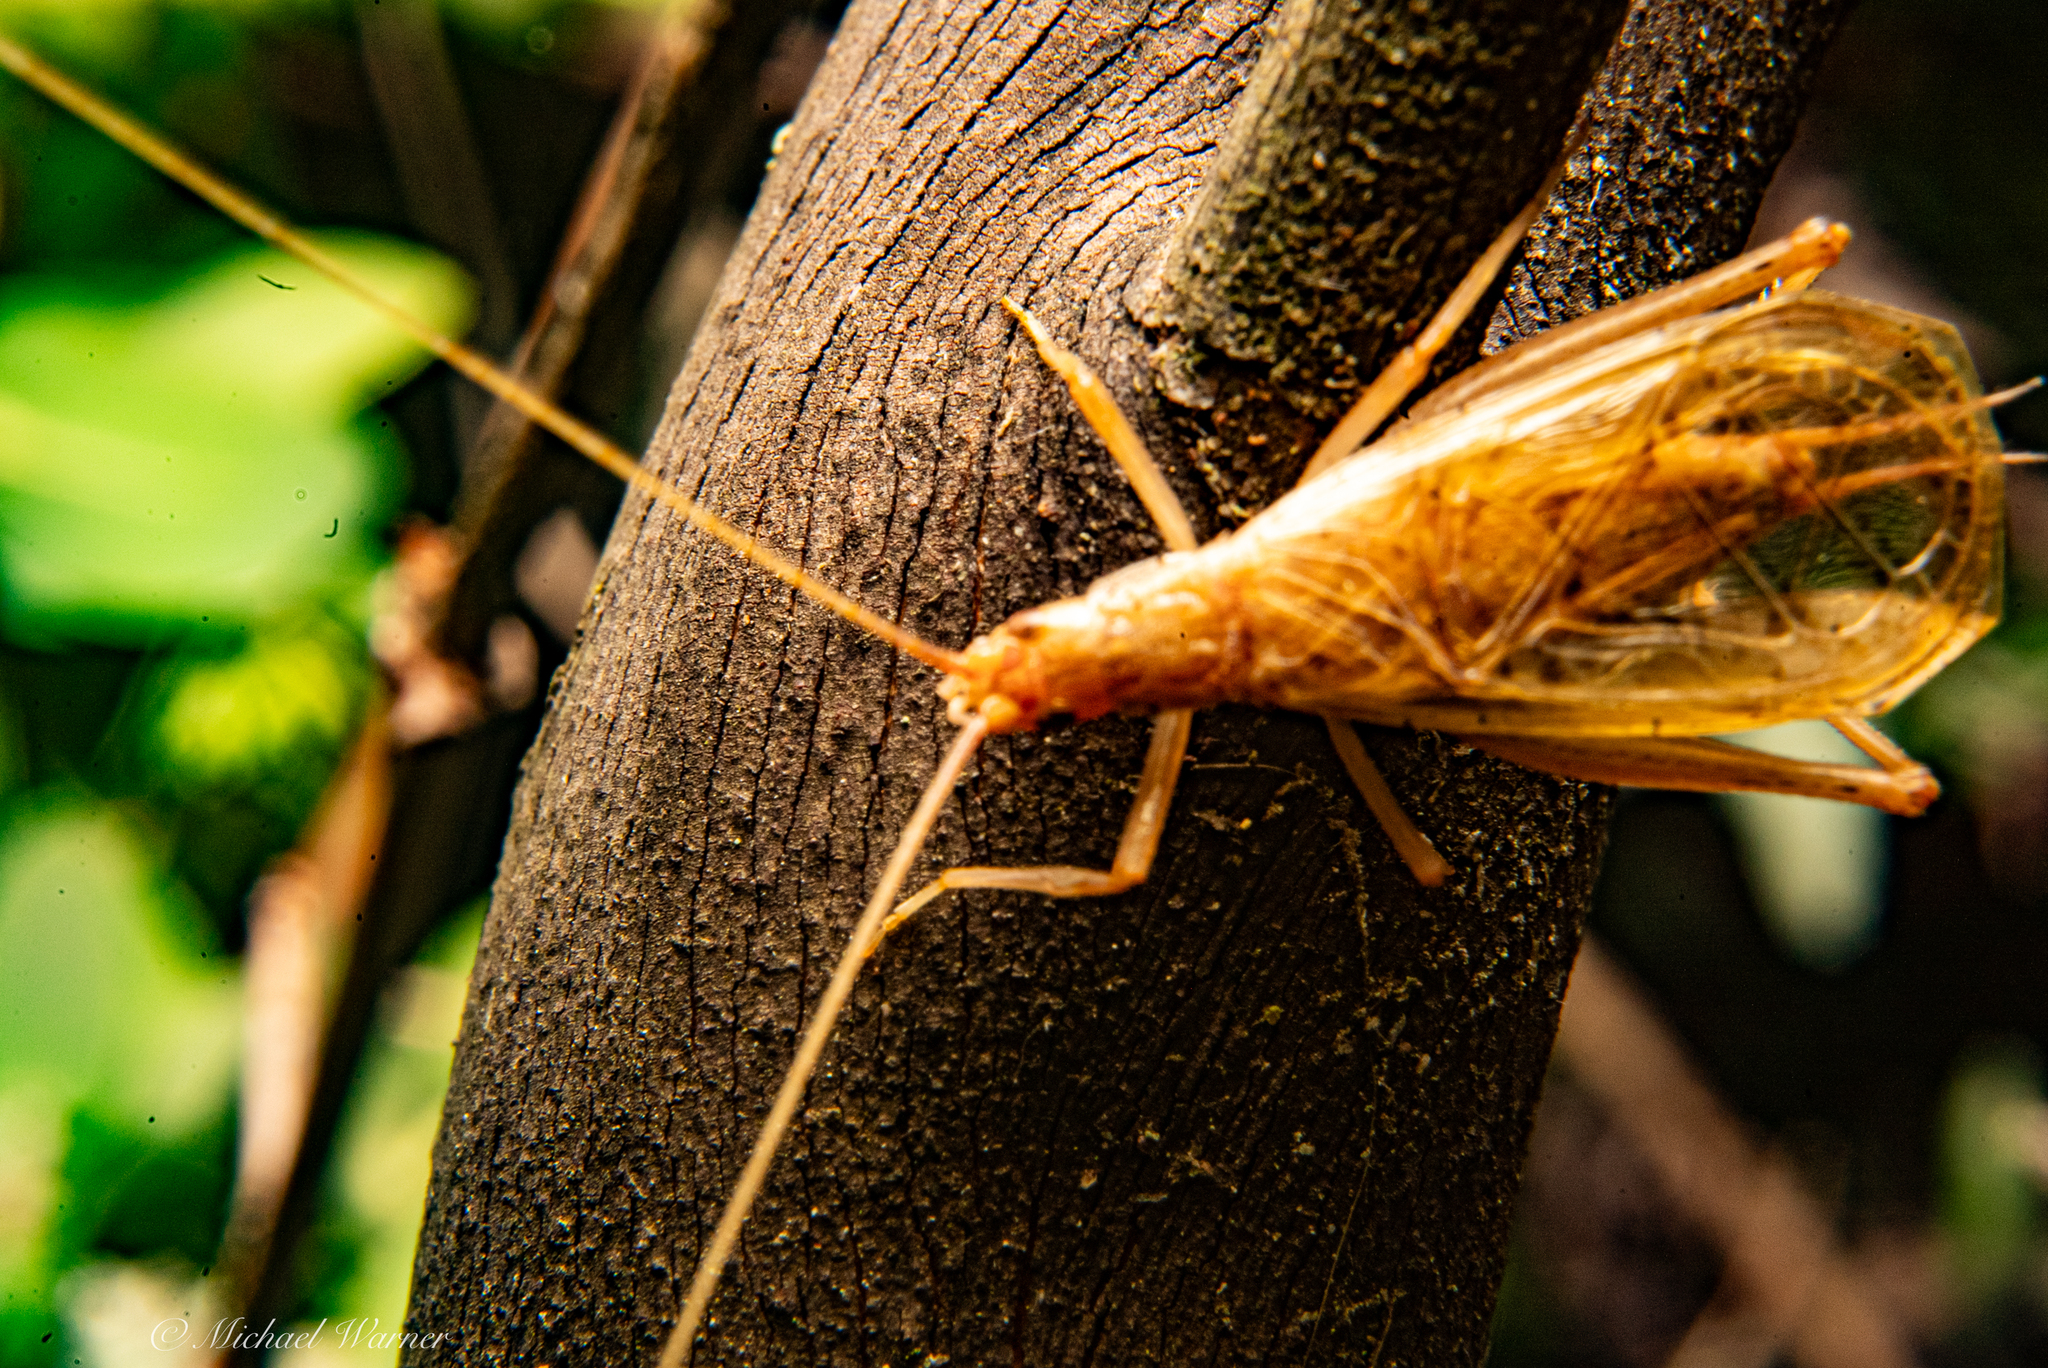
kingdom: Animalia
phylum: Arthropoda
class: Insecta
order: Orthoptera
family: Gryllidae
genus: Oecanthus
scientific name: Oecanthus californicus
